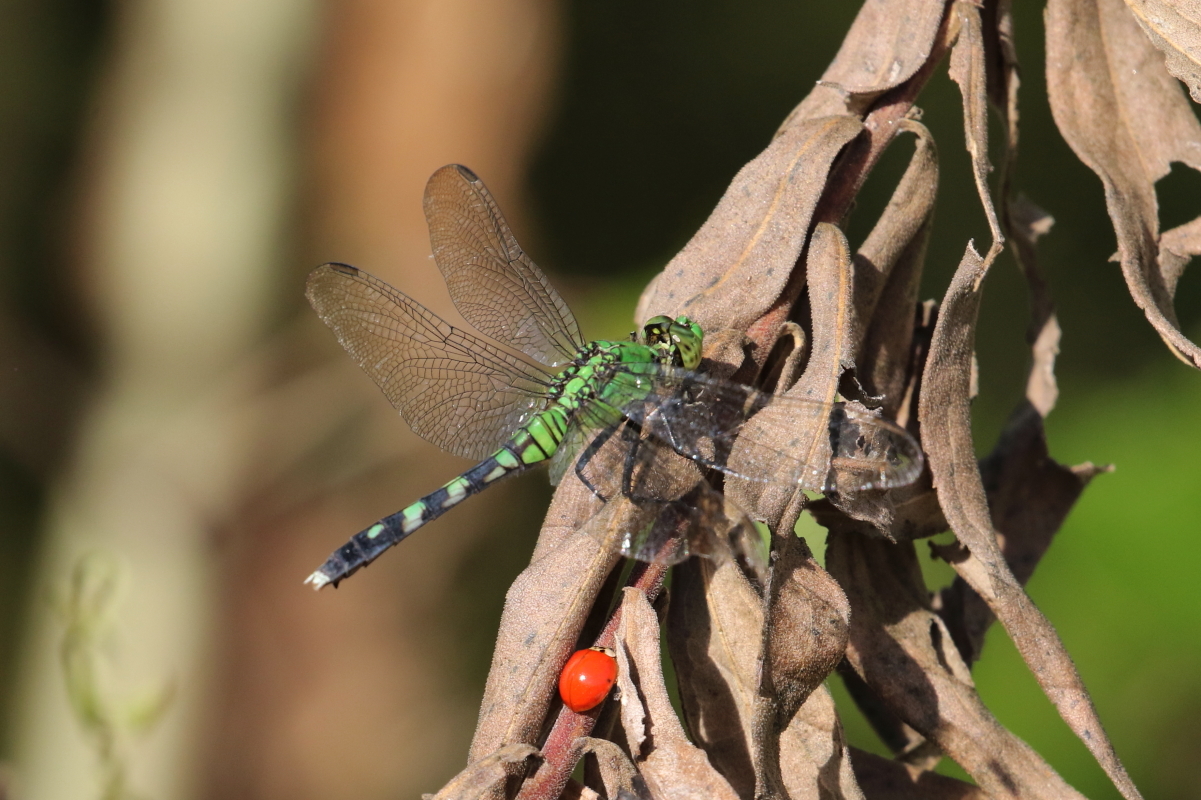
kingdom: Animalia
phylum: Arthropoda
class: Insecta
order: Odonata
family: Libellulidae
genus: Erythemis
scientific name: Erythemis simplicicollis
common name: Eastern pondhawk
